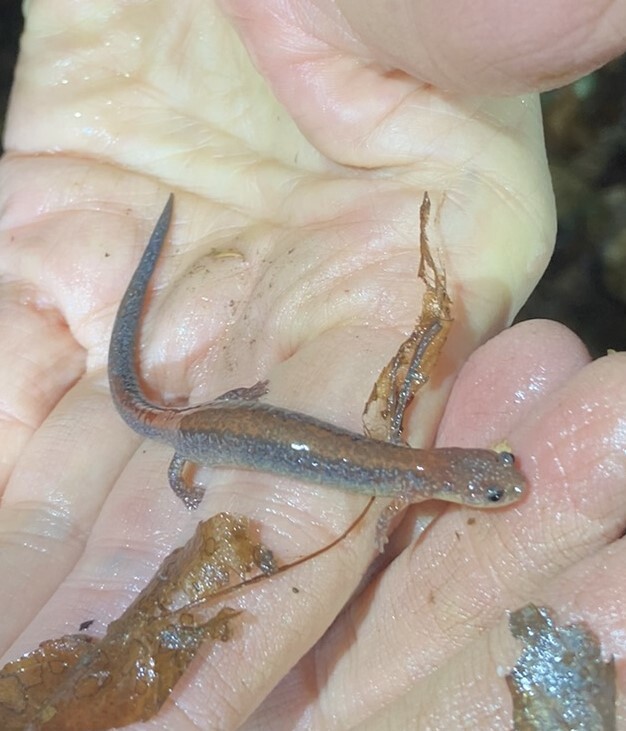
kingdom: Animalia
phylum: Chordata
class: Amphibia
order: Caudata
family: Plethodontidae
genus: Plethodon
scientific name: Plethodon cinereus
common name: Redback salamander
